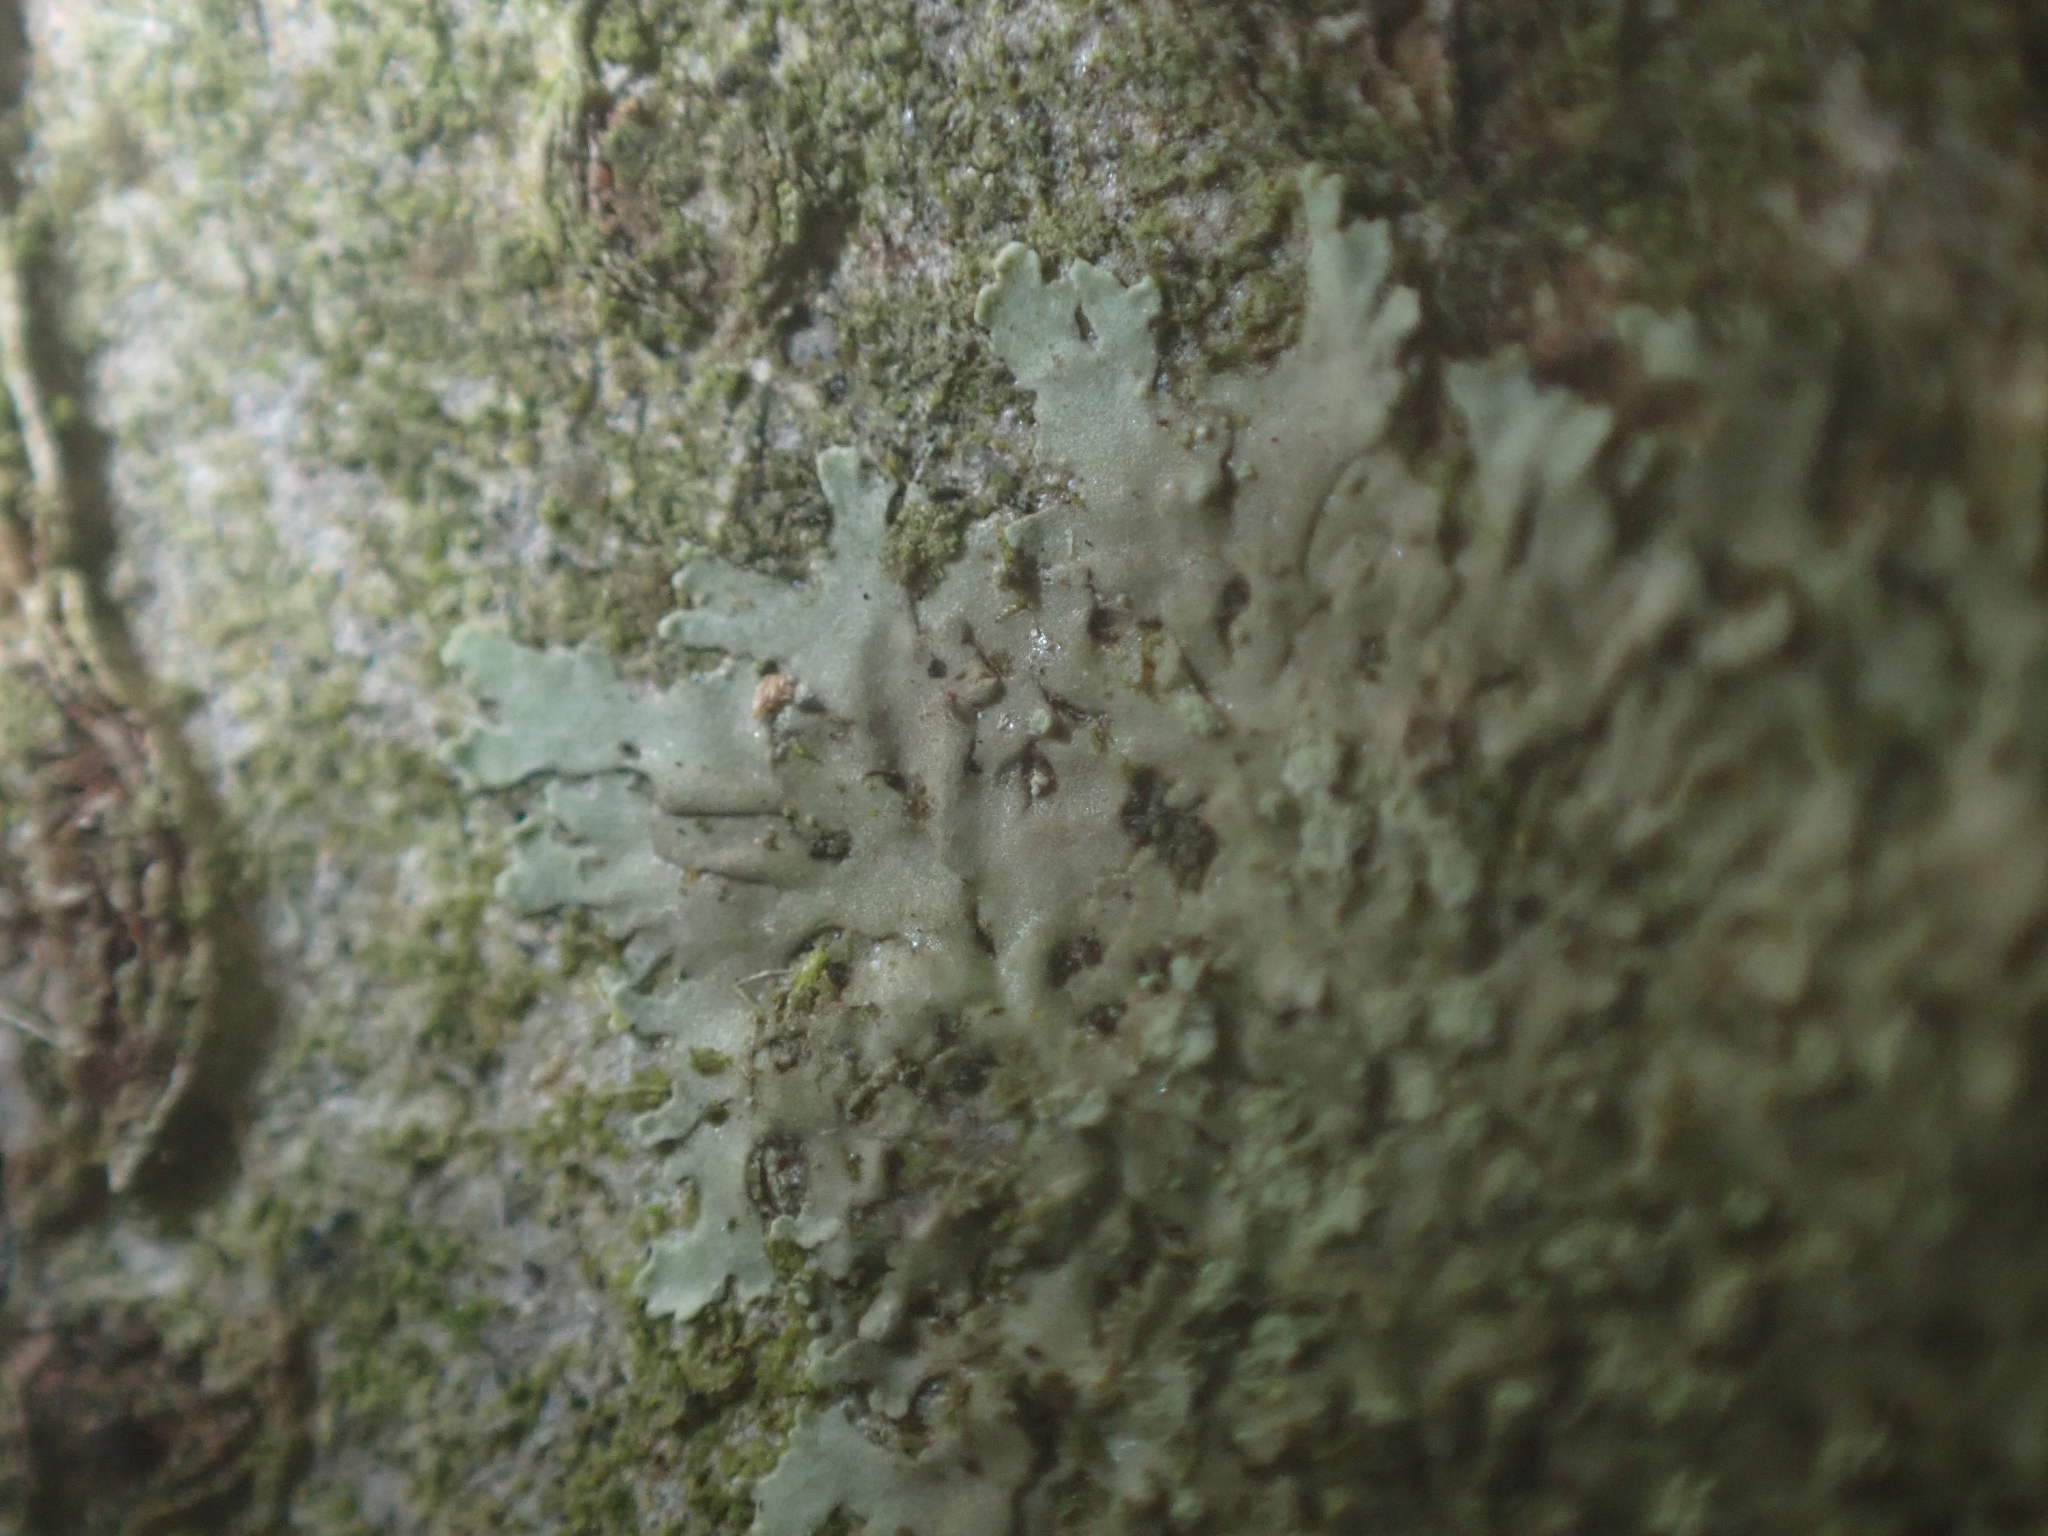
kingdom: Fungi
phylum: Ascomycota
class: Lecanoromycetes
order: Caliciales
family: Physciaceae
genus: Hyperphyscia
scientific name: Hyperphyscia adglutinata
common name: Grainy shadow-crust lichen
